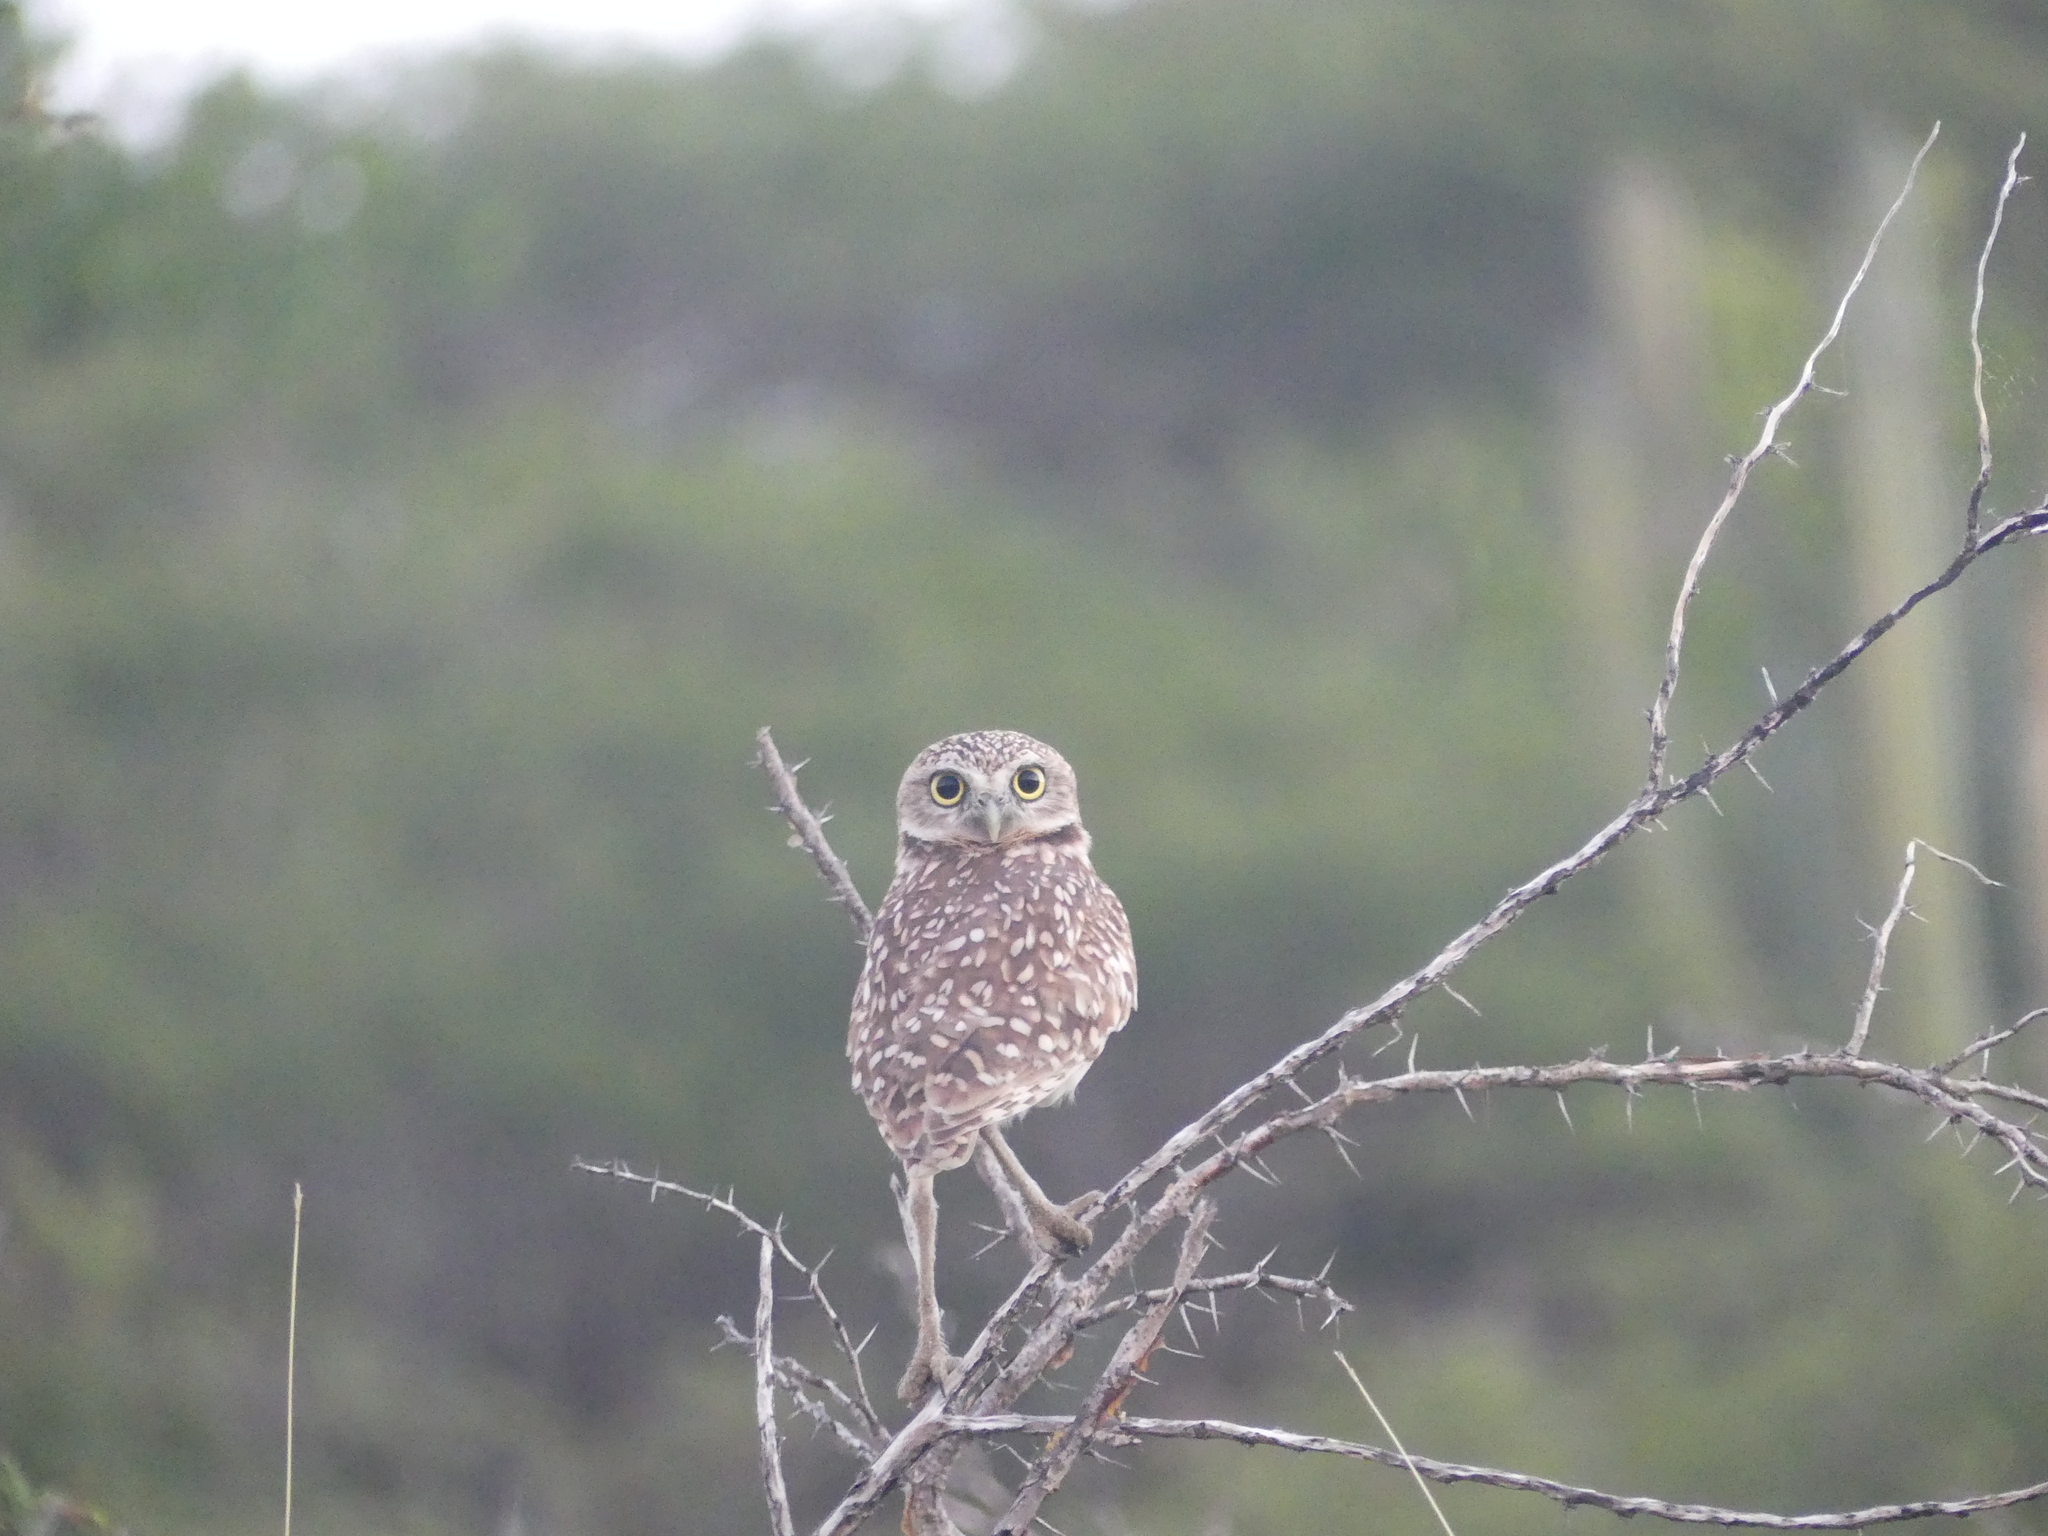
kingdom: Animalia
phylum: Chordata
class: Aves
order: Strigiformes
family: Strigidae
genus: Athene
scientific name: Athene cunicularia
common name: Burrowing owl
